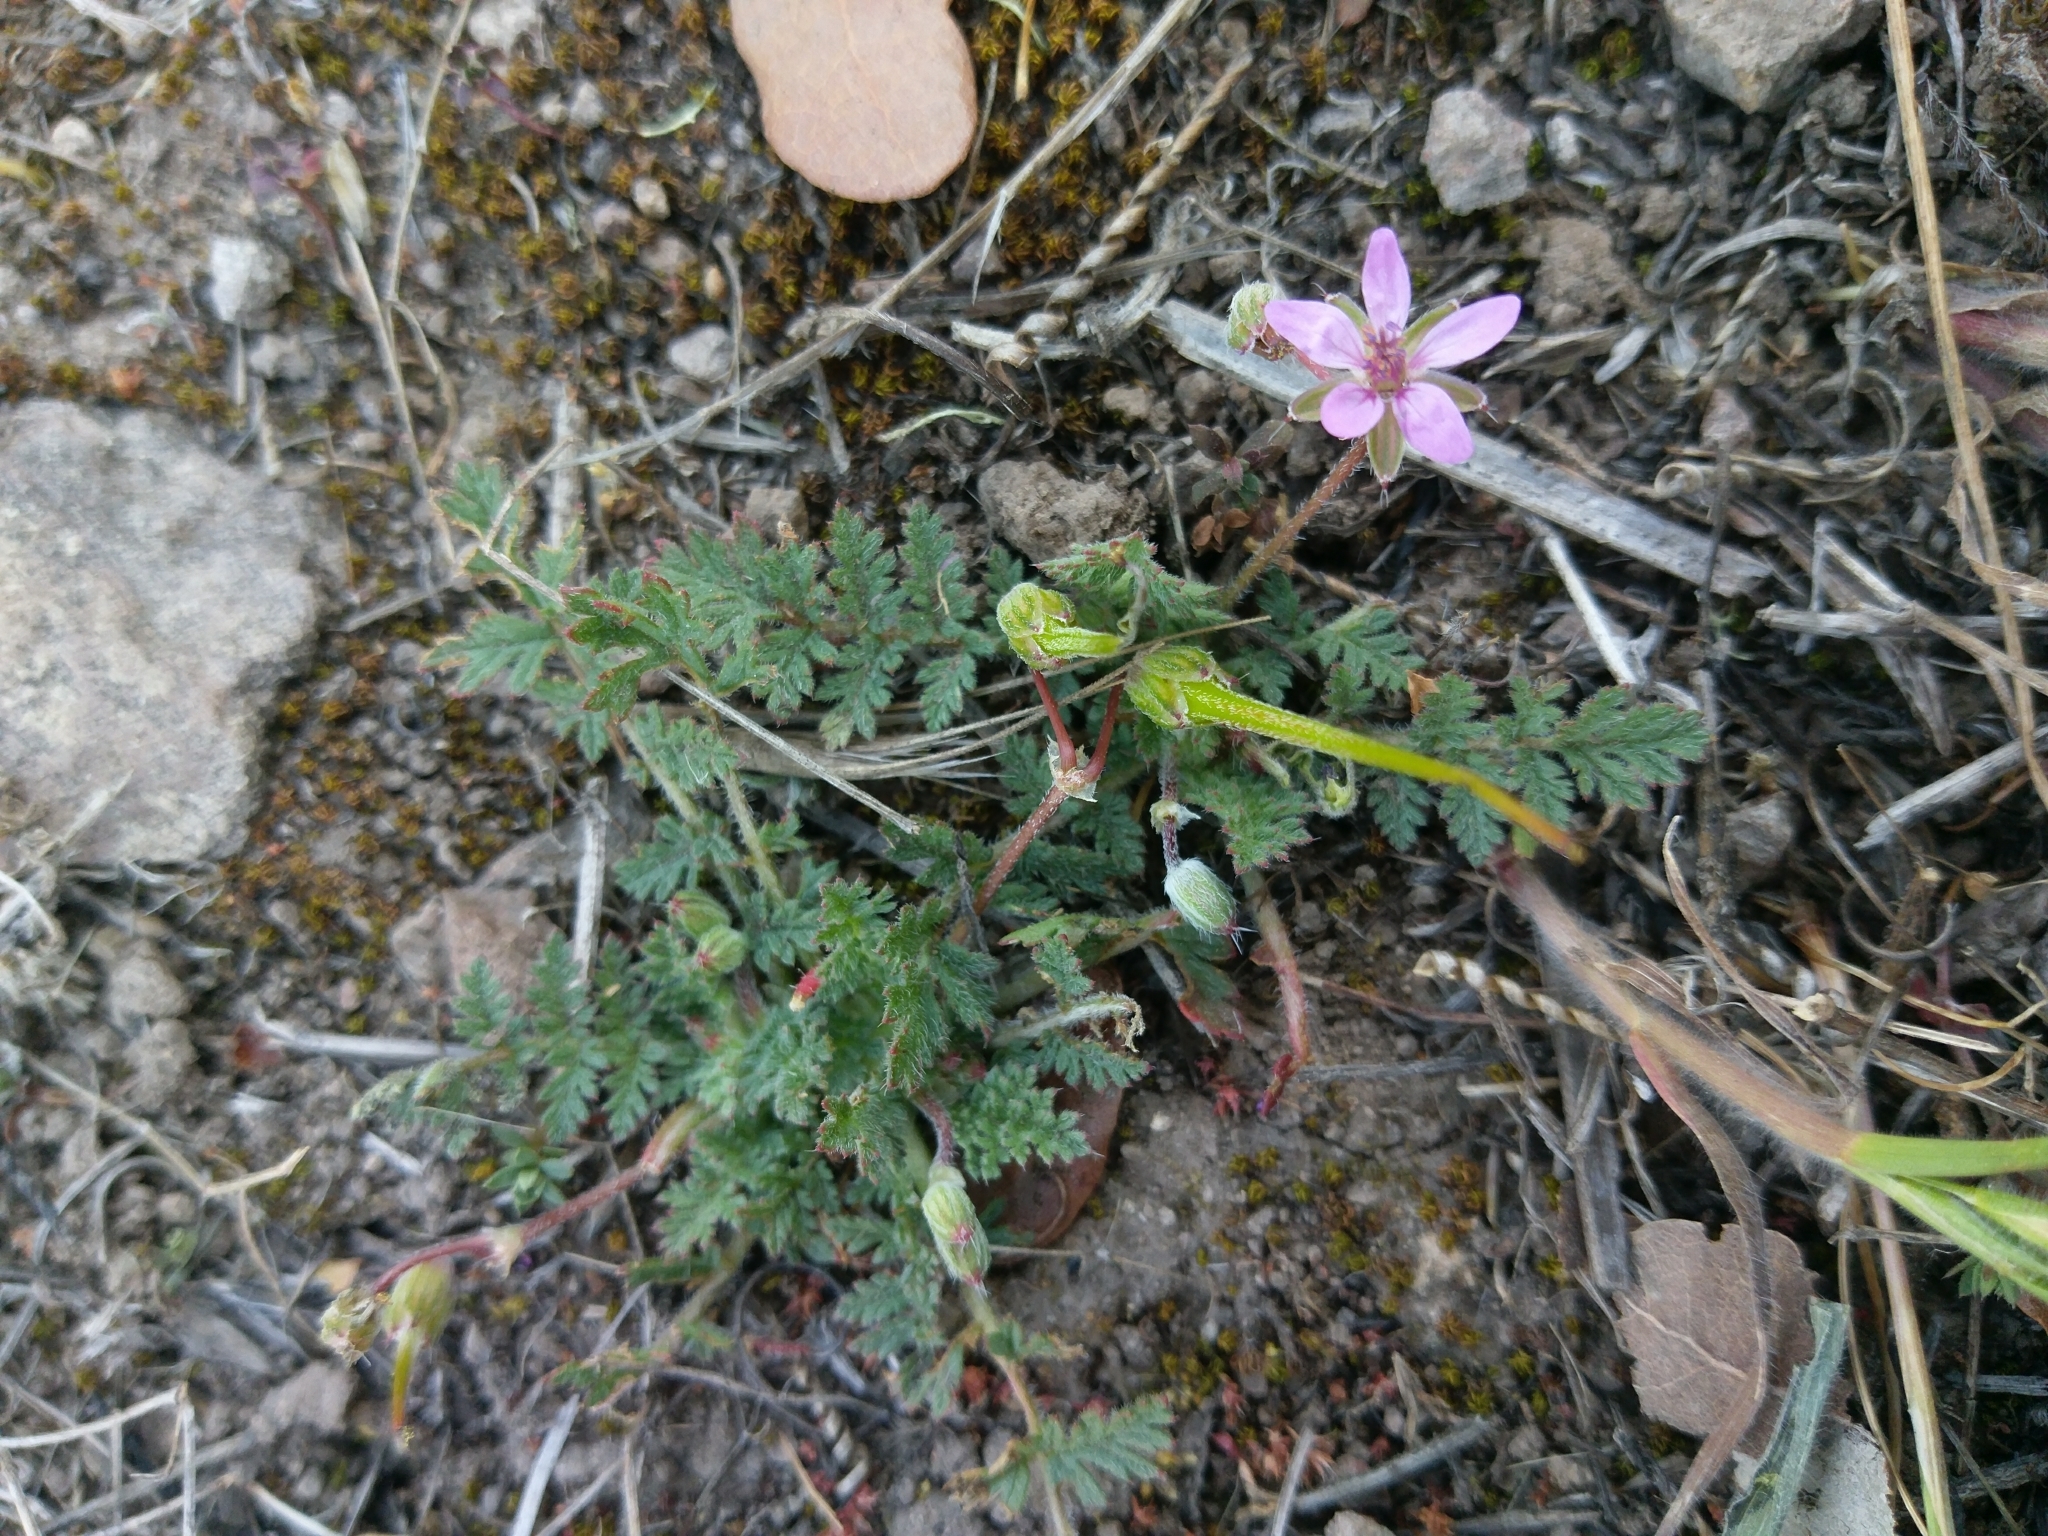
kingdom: Plantae
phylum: Tracheophyta
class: Magnoliopsida
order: Geraniales
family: Geraniaceae
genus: Erodium
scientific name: Erodium cicutarium
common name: Common stork's-bill
